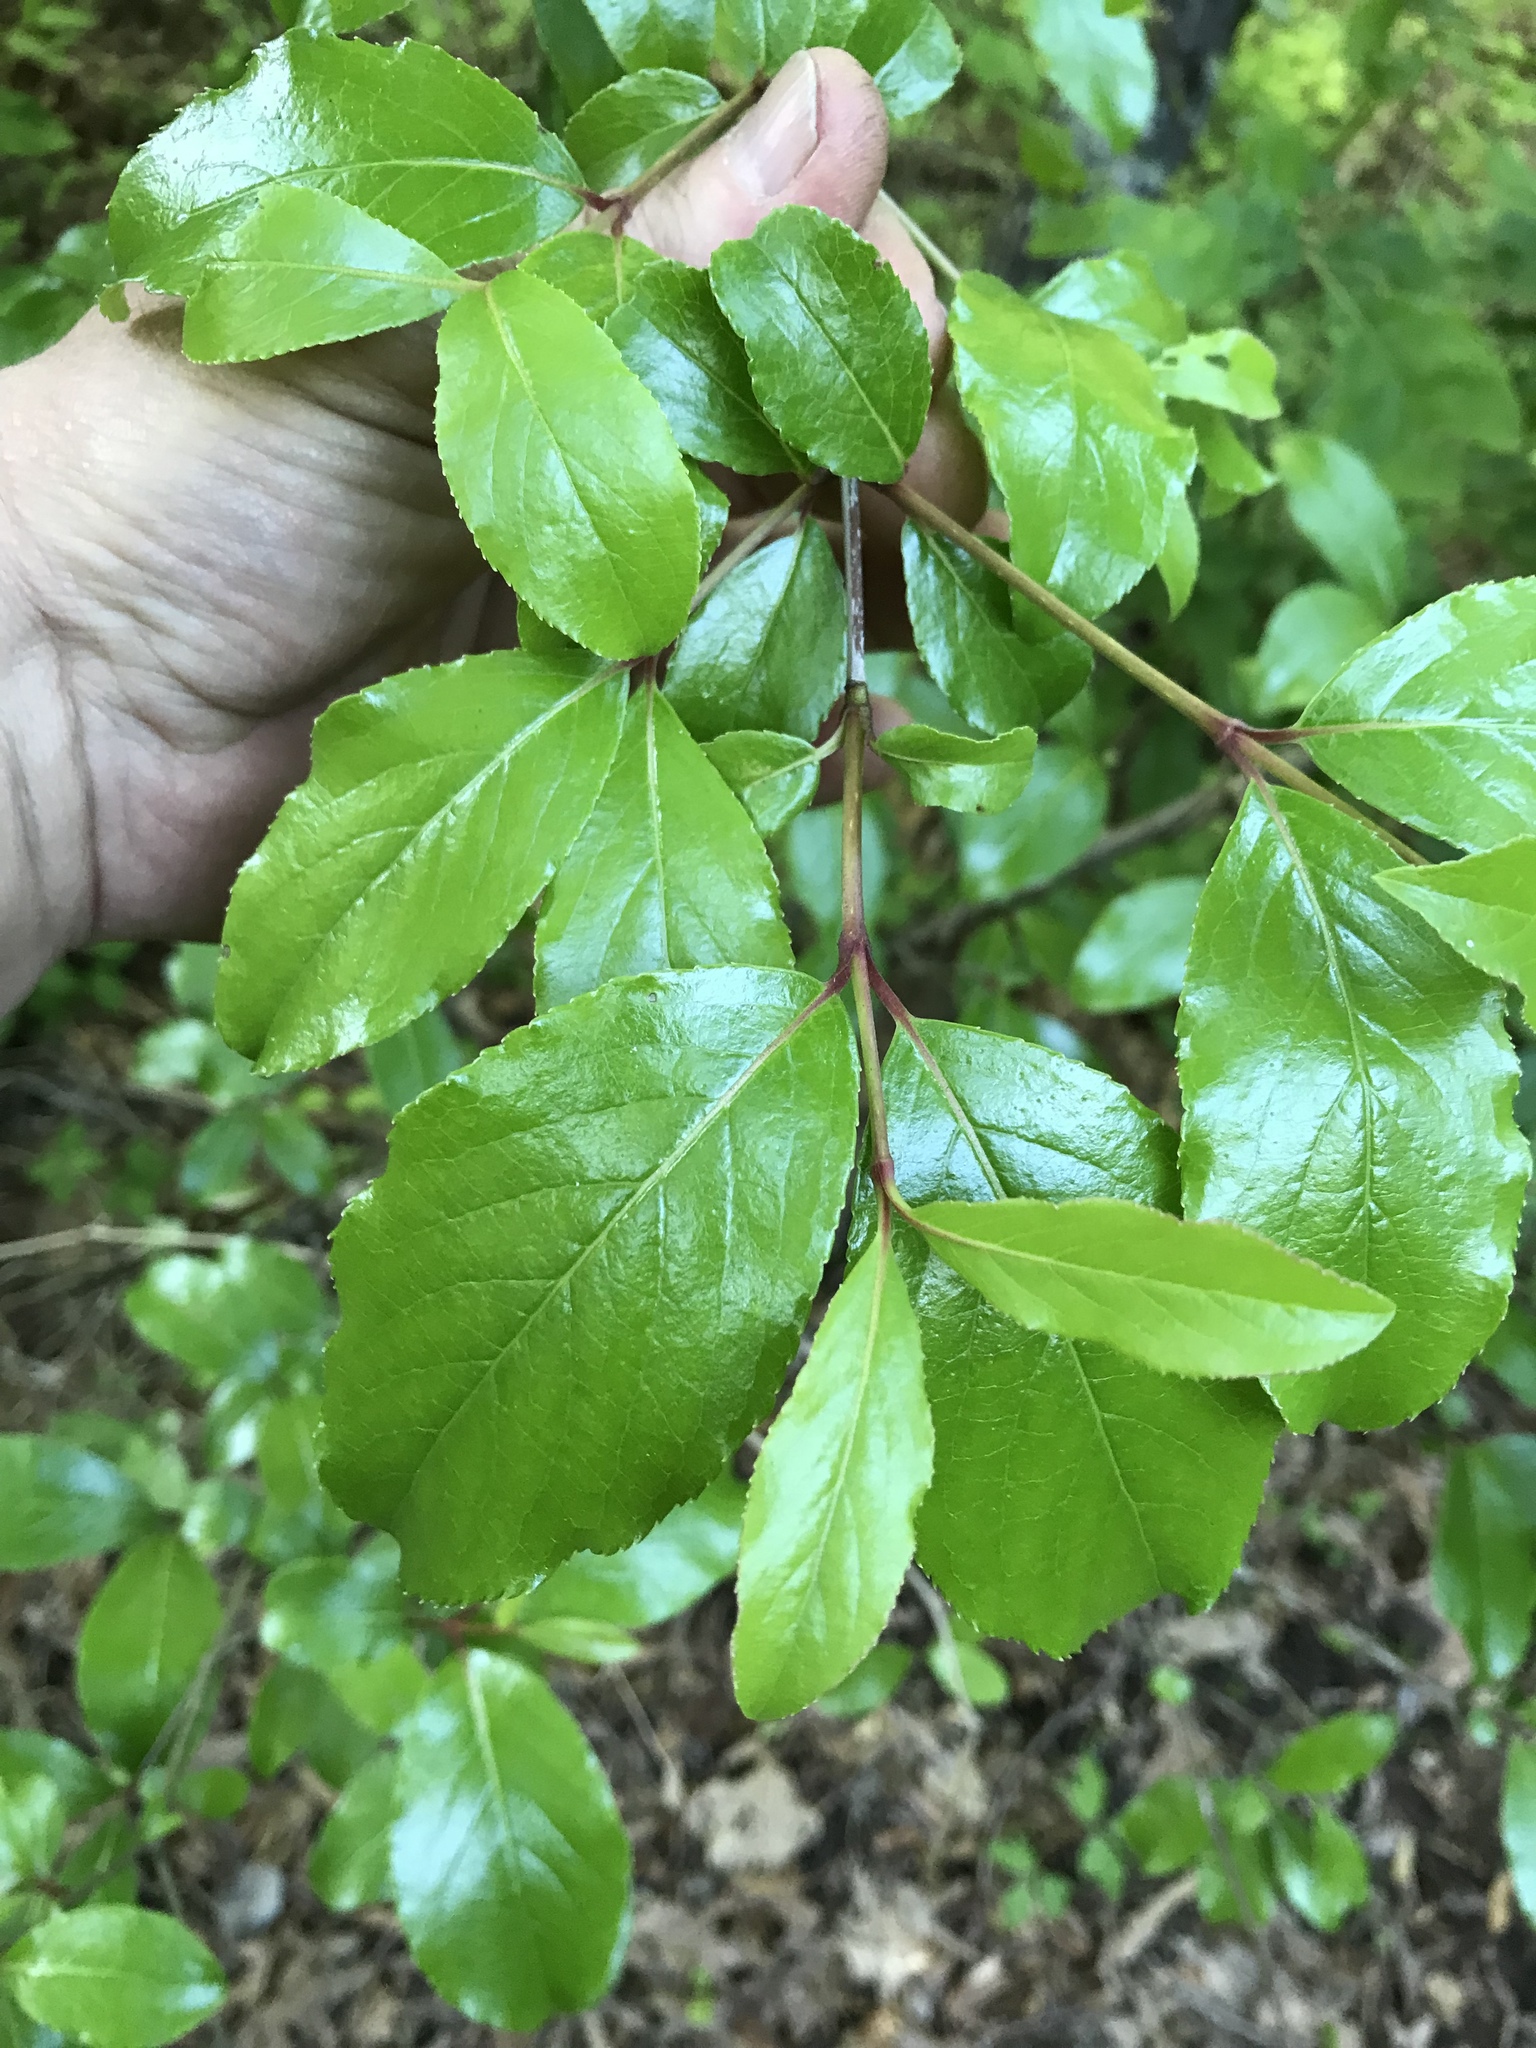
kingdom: Plantae
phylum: Tracheophyta
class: Magnoliopsida
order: Dipsacales
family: Viburnaceae
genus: Viburnum
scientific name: Viburnum rufidulum
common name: Blue haw
